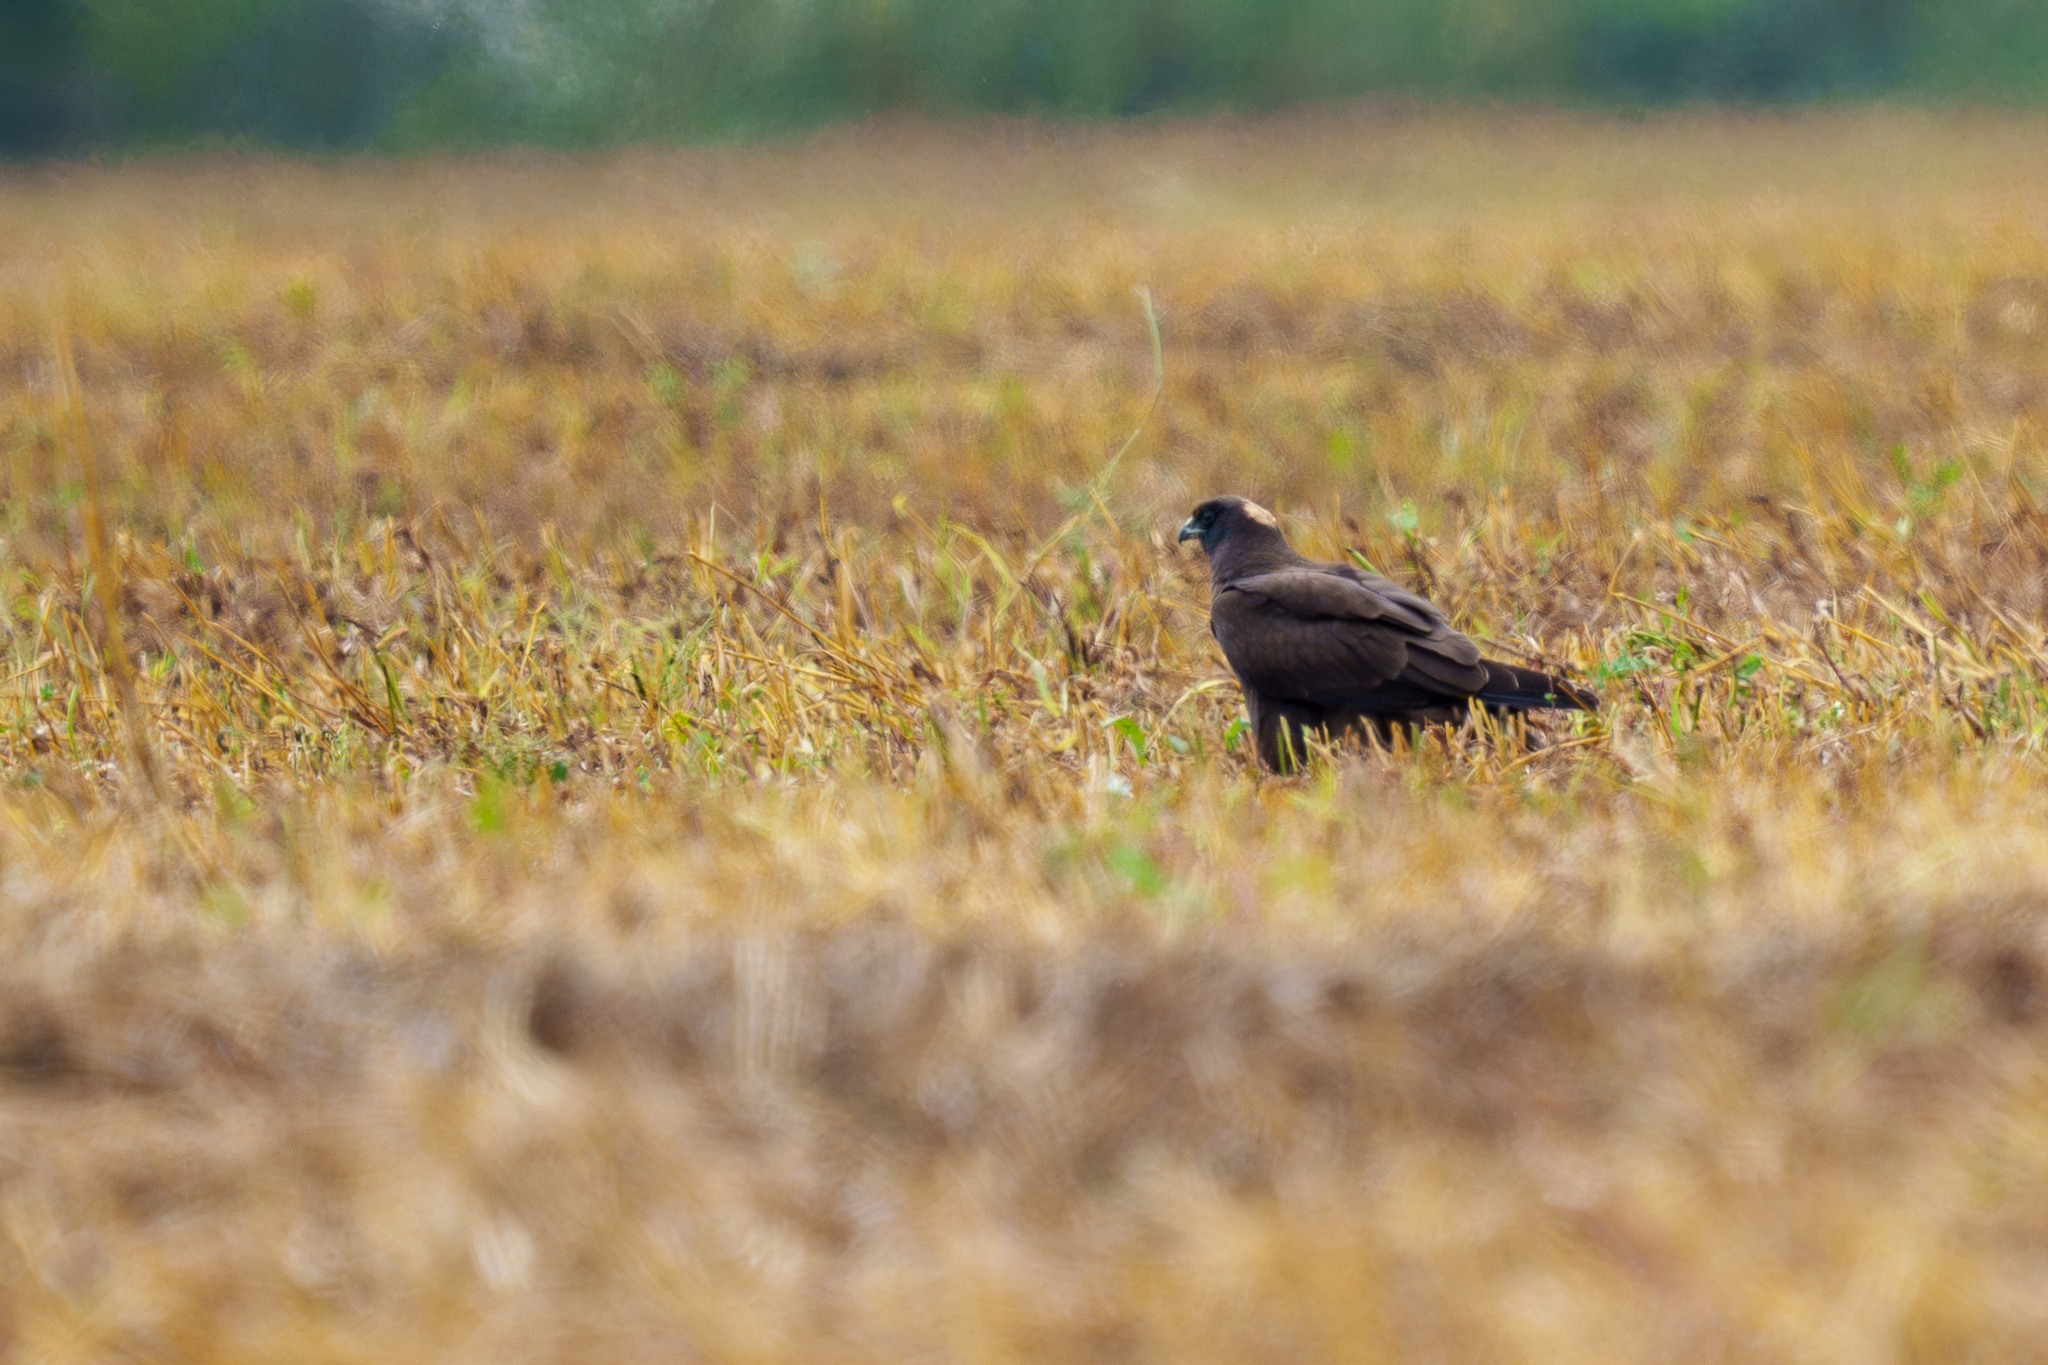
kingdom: Animalia
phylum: Chordata
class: Aves
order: Accipitriformes
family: Accipitridae
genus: Circus
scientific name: Circus aeruginosus
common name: Western marsh harrier
